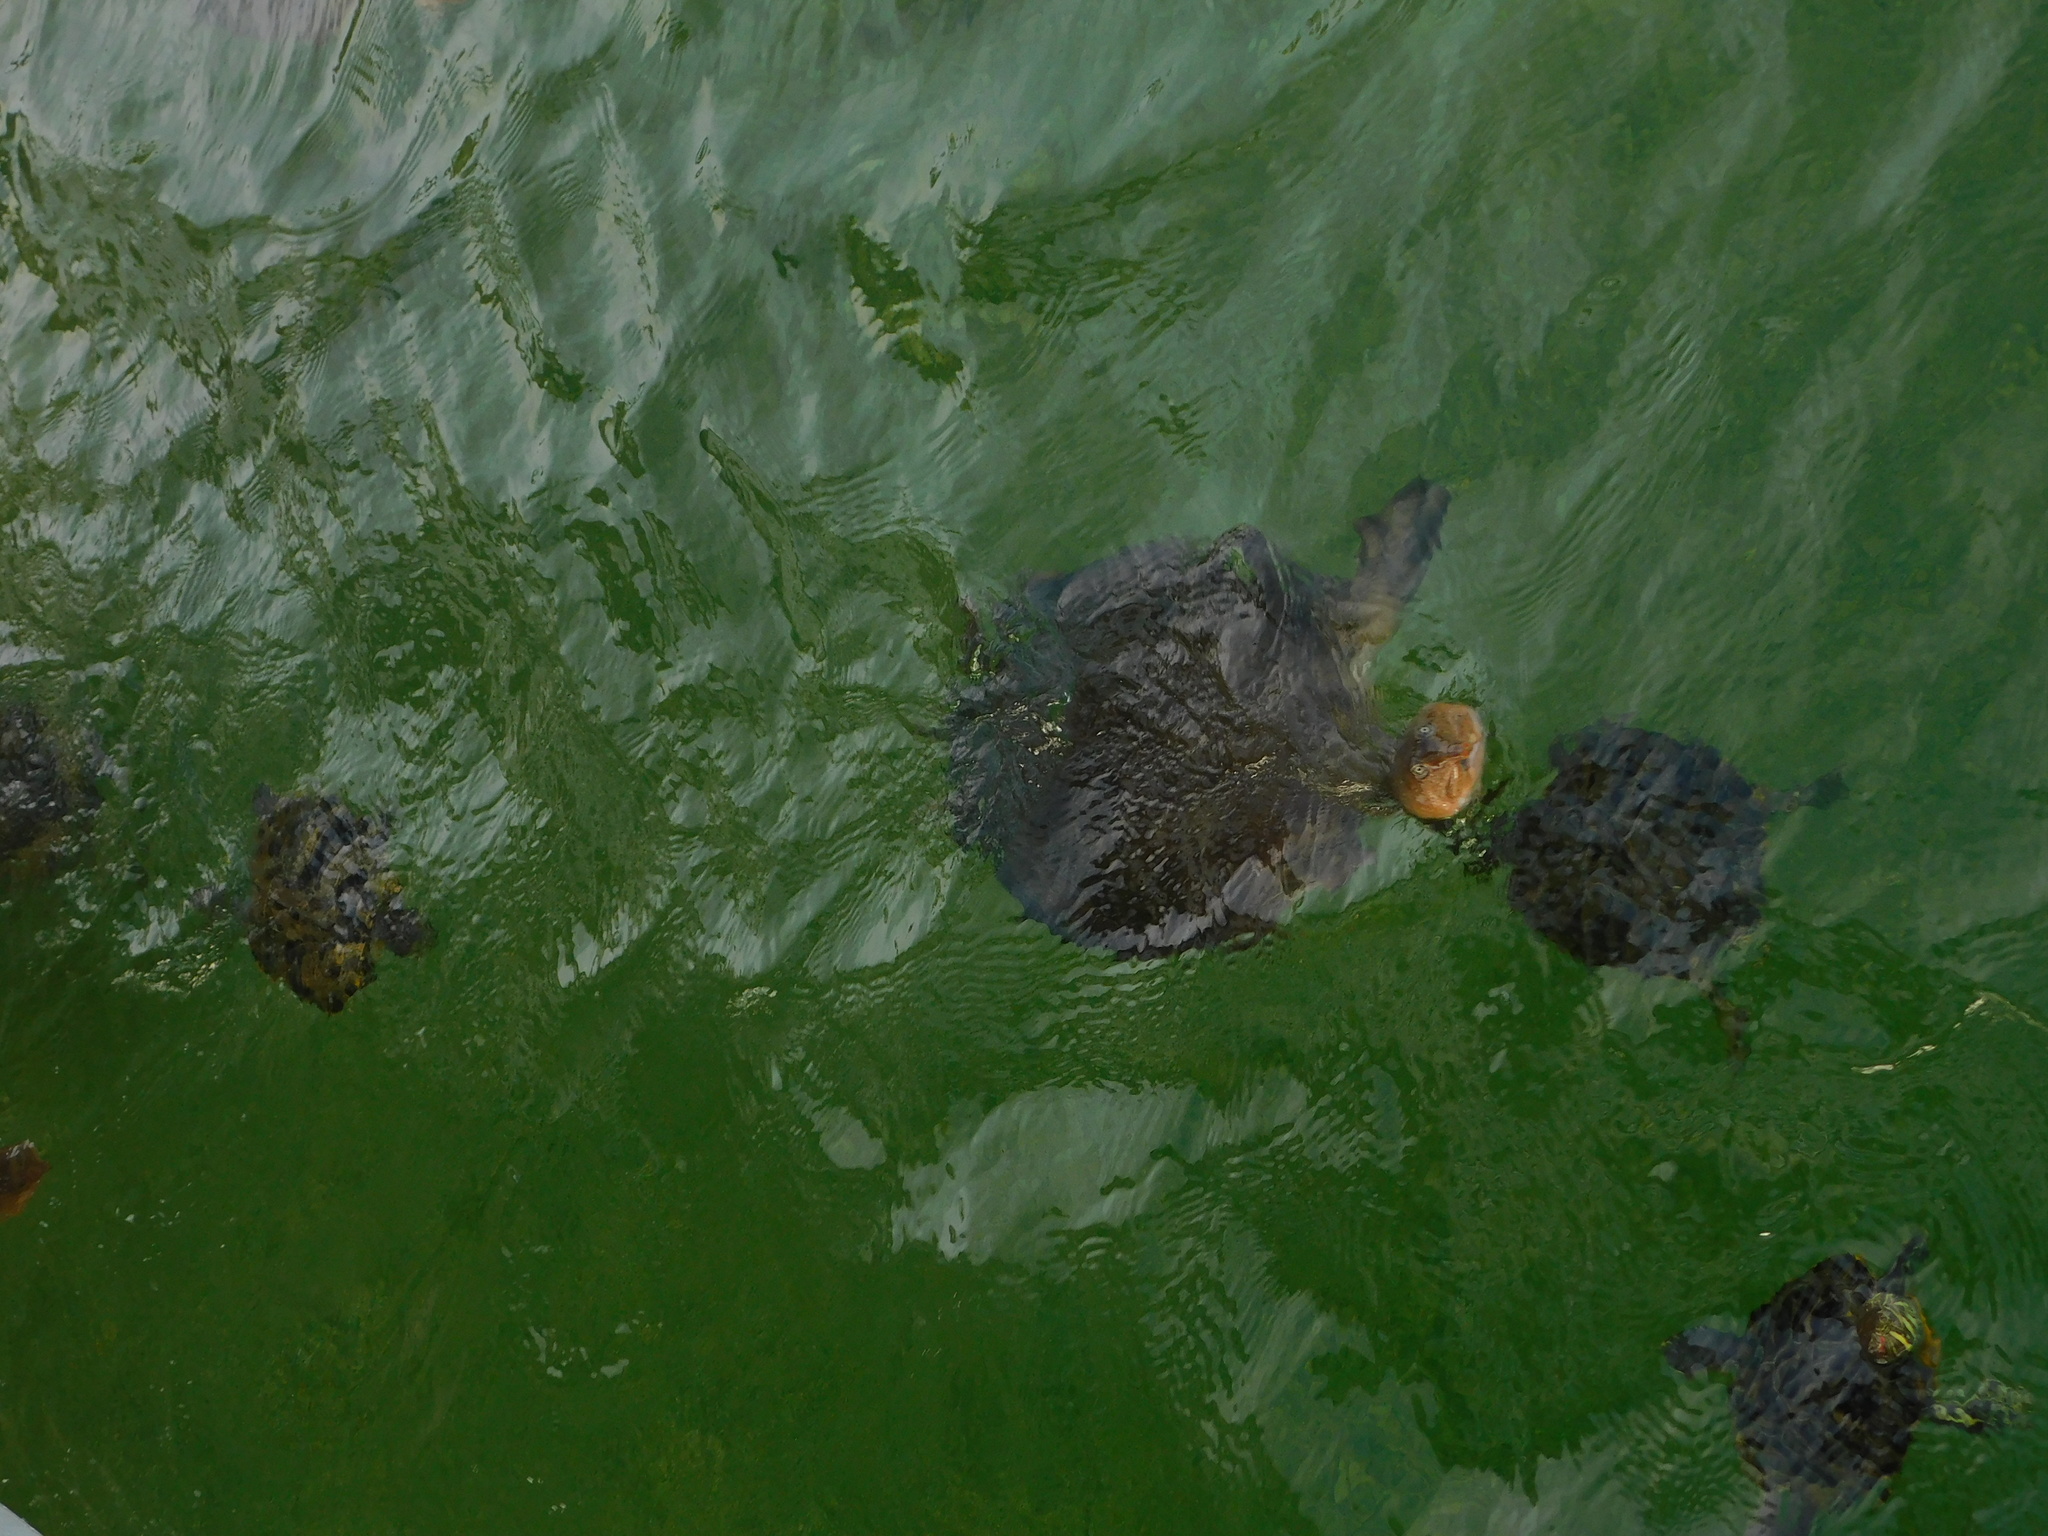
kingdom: Animalia
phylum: Chordata
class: Testudines
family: Trionychidae
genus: Apalone
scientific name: Apalone ferox
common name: Florida softshell turtle
